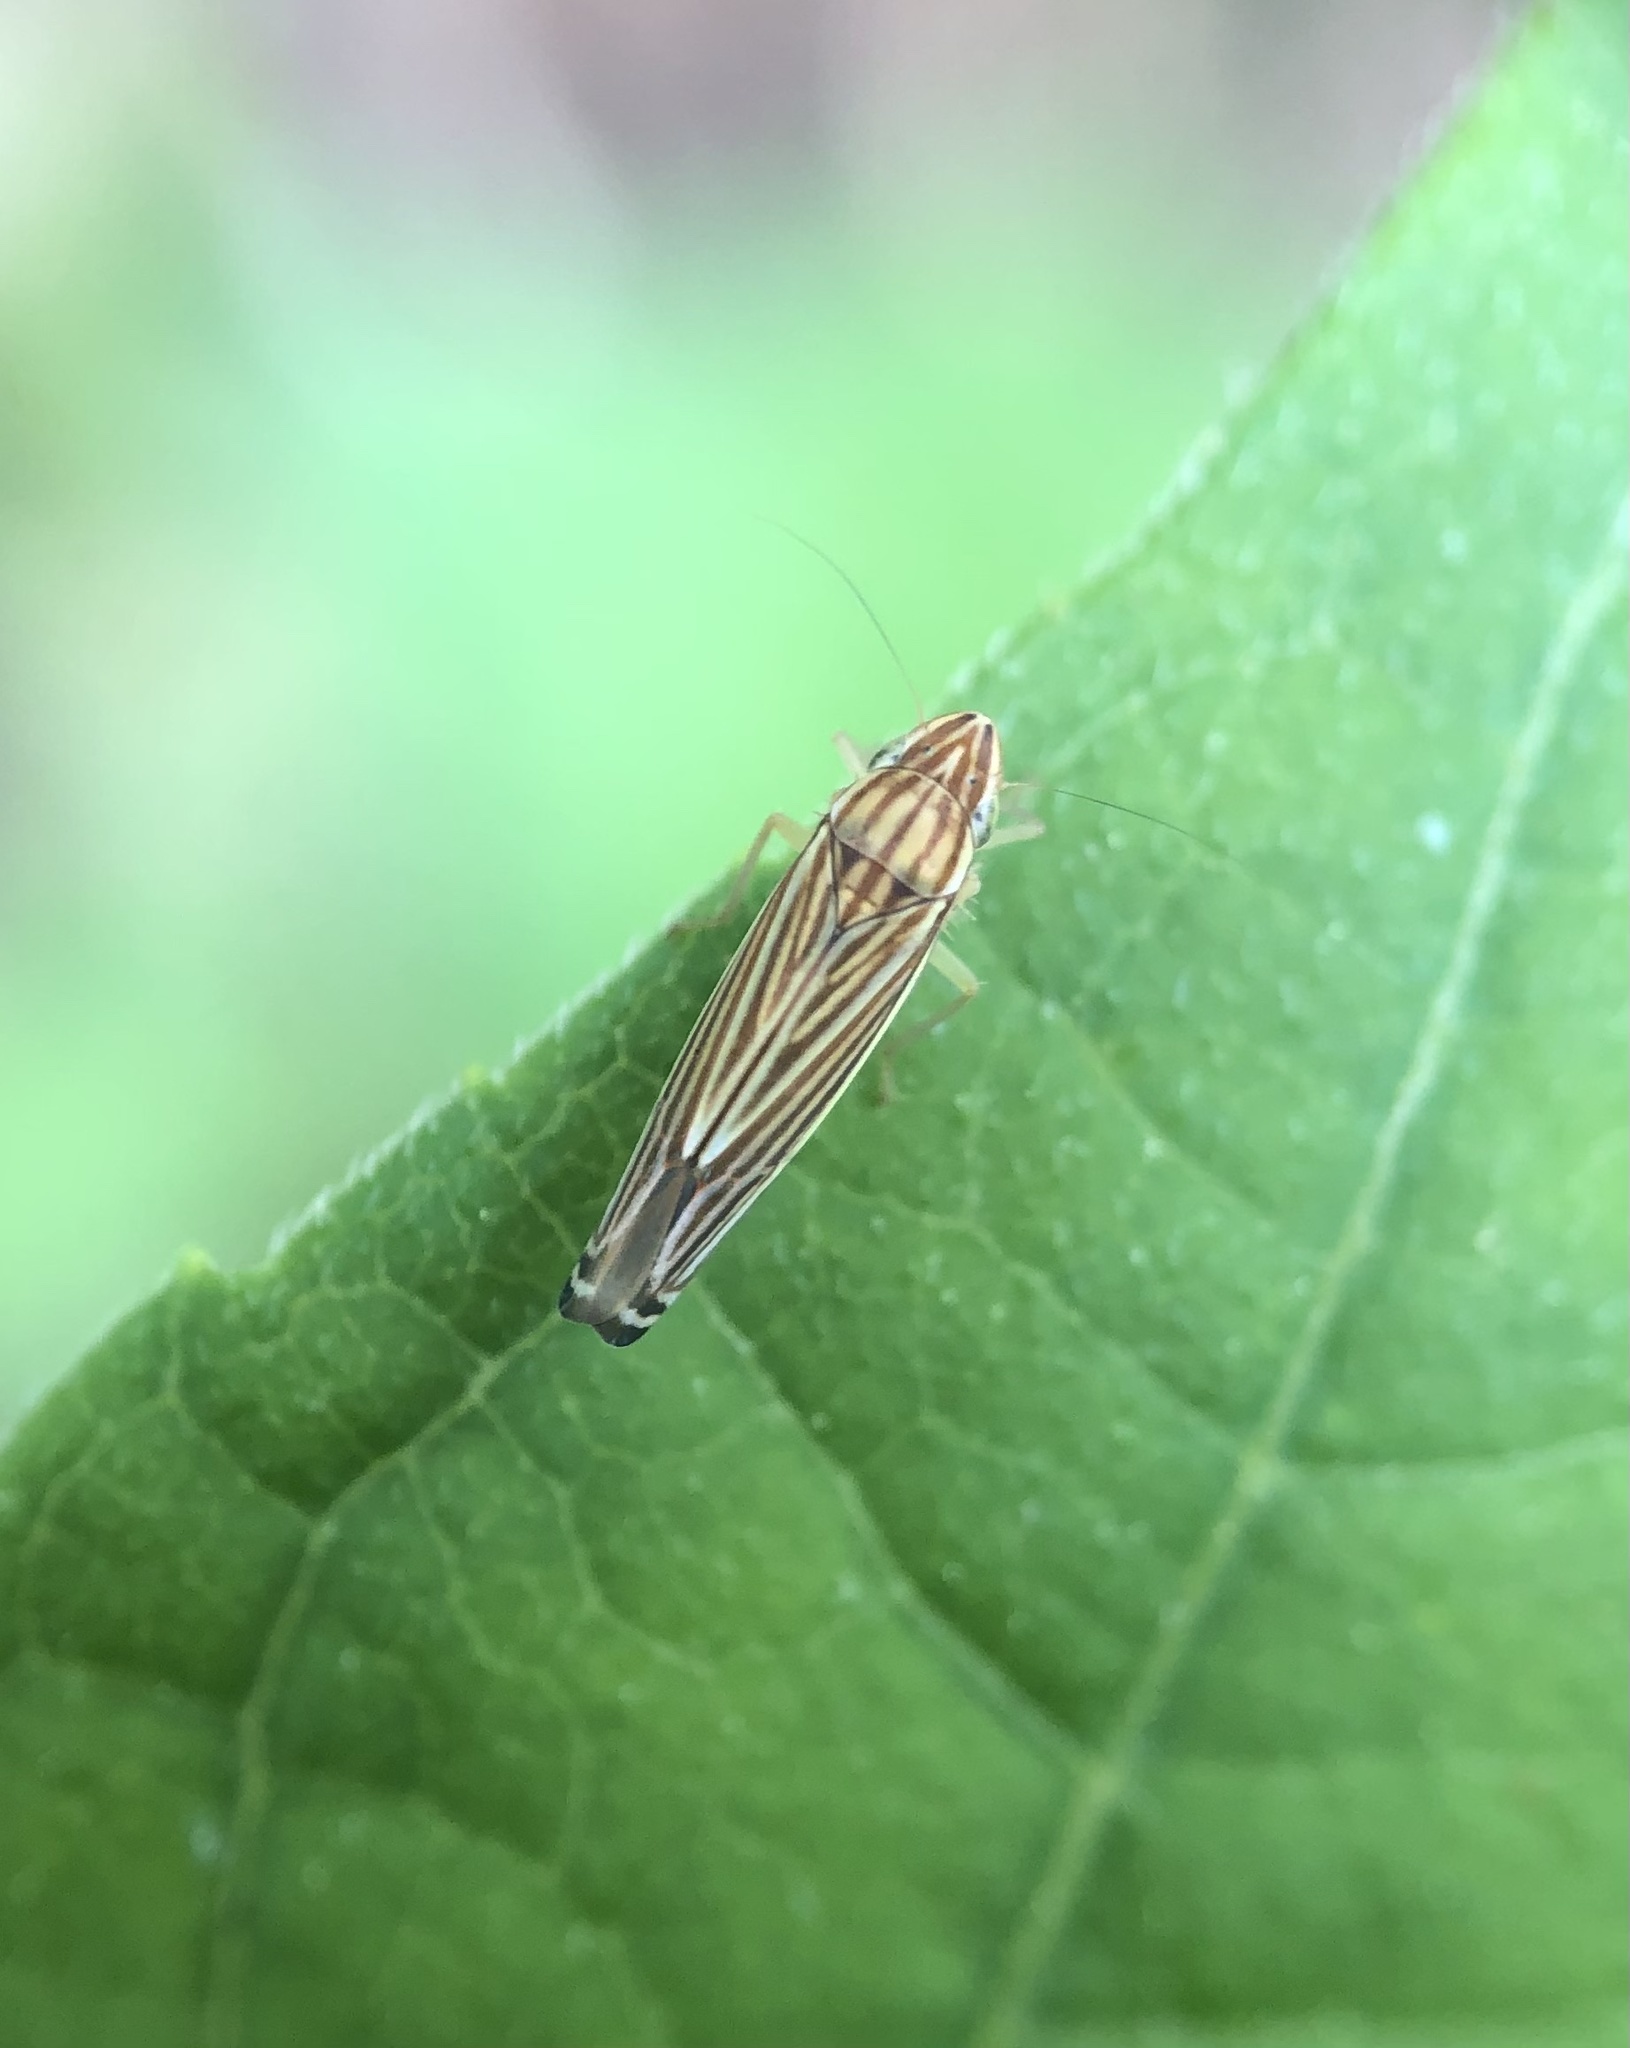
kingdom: Animalia
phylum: Arthropoda
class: Insecta
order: Hemiptera
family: Cicadellidae
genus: Sibovia
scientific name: Sibovia occatoria
